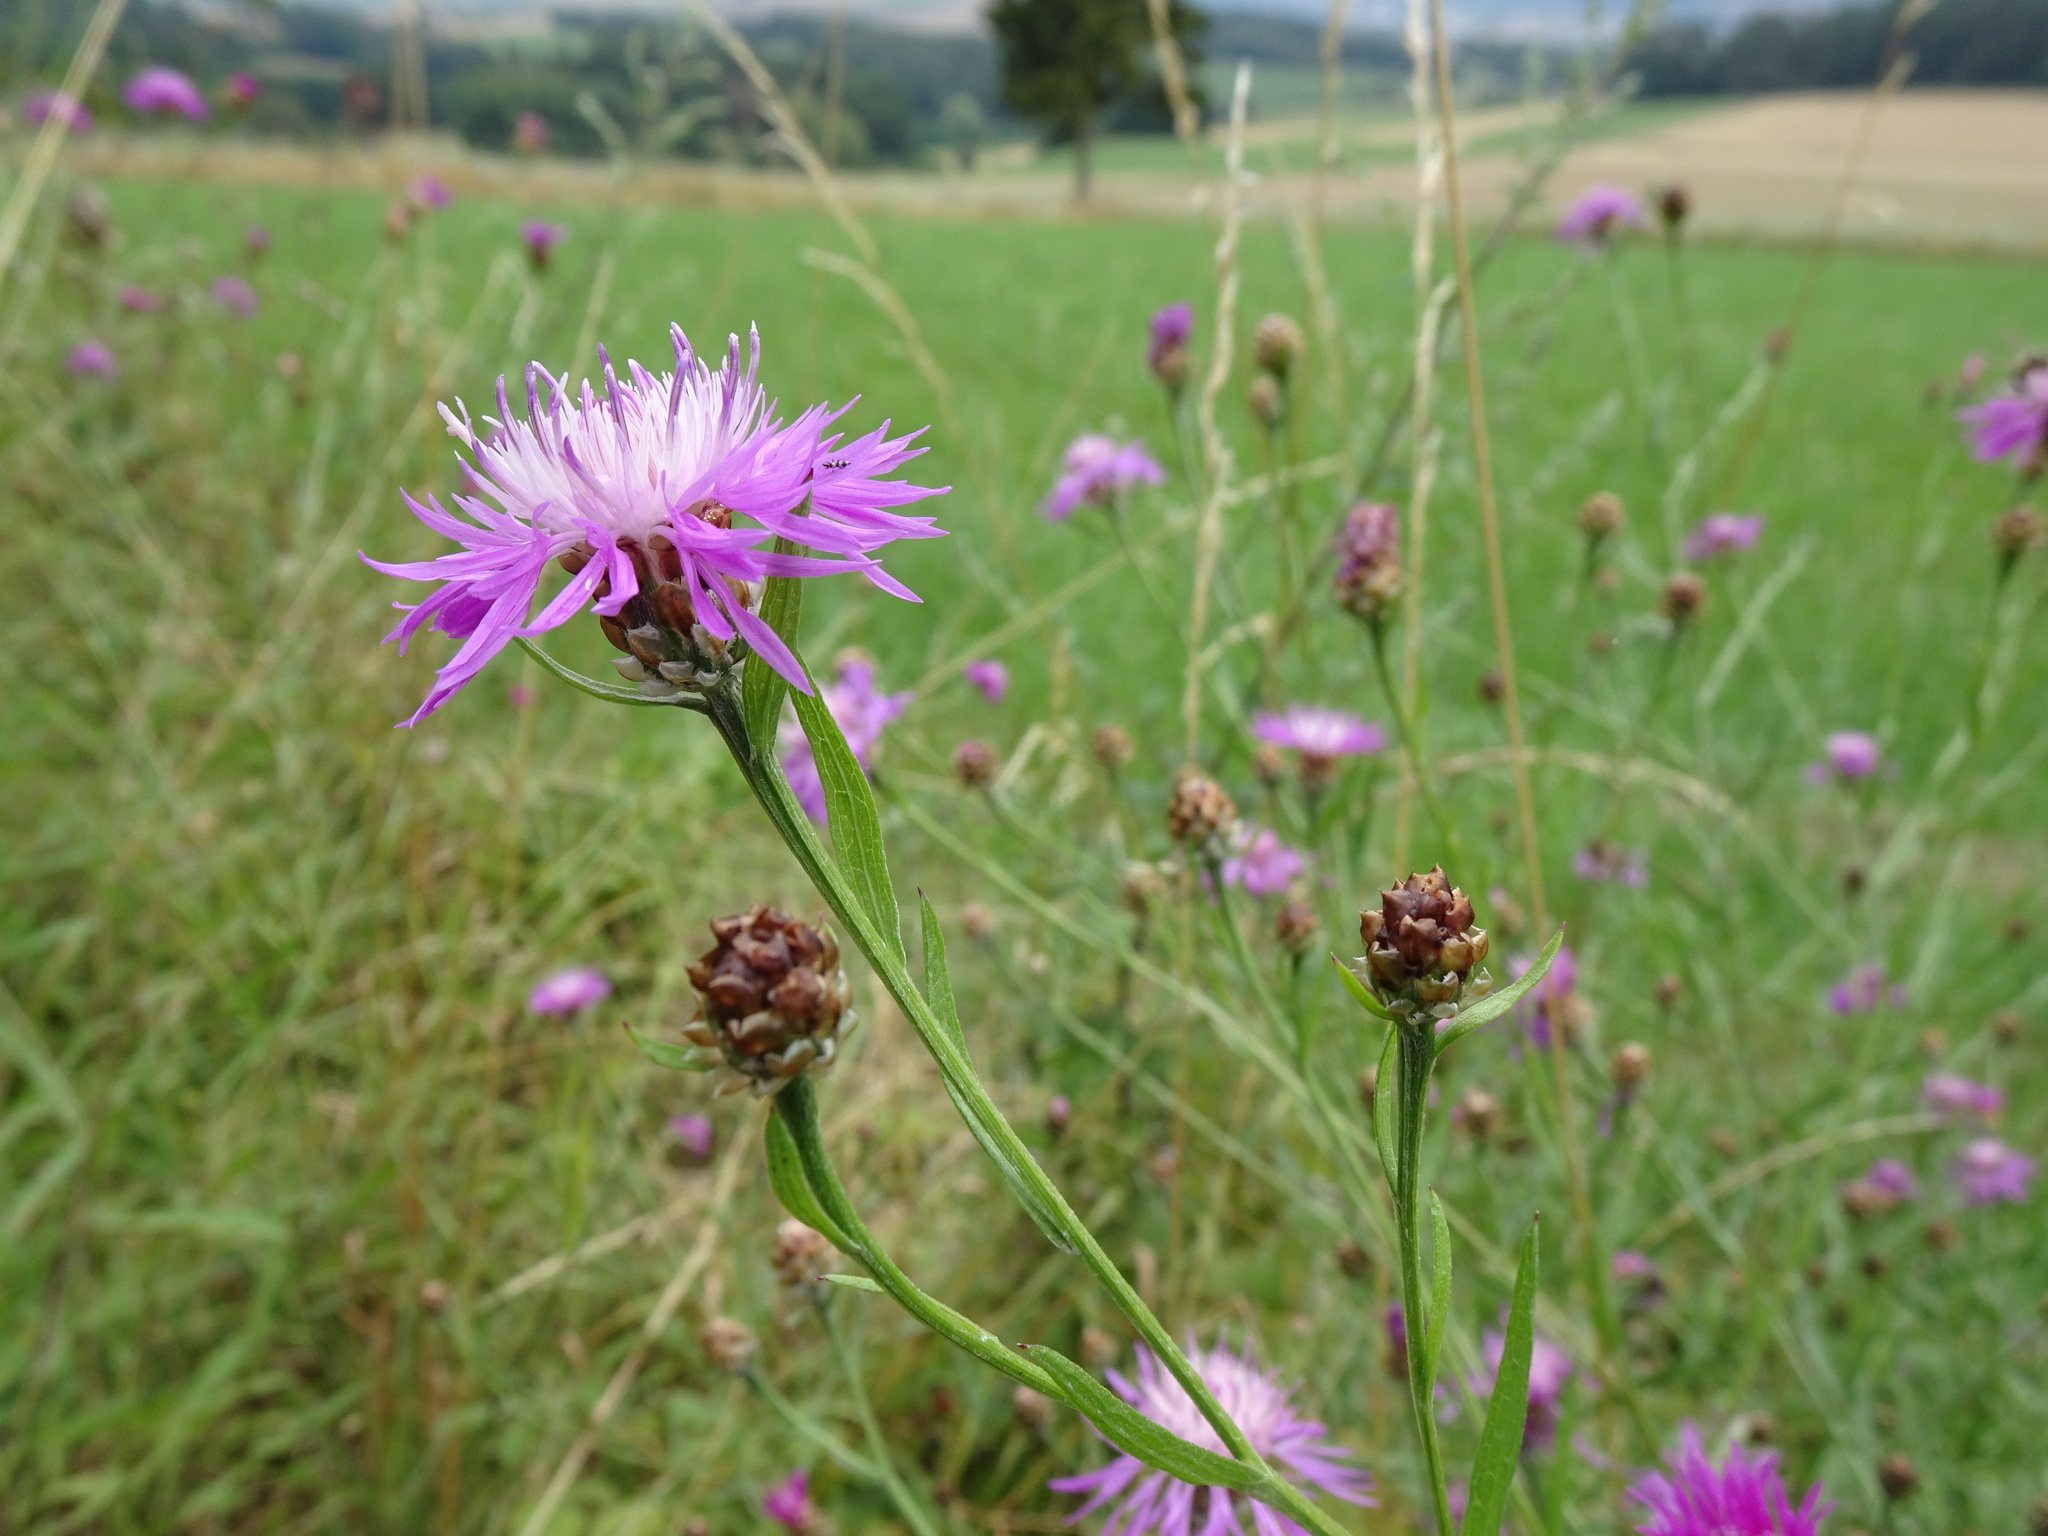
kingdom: Plantae
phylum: Tracheophyta
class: Magnoliopsida
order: Asterales
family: Asteraceae
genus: Centaurea
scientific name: Centaurea jacea
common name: Brown knapweed
